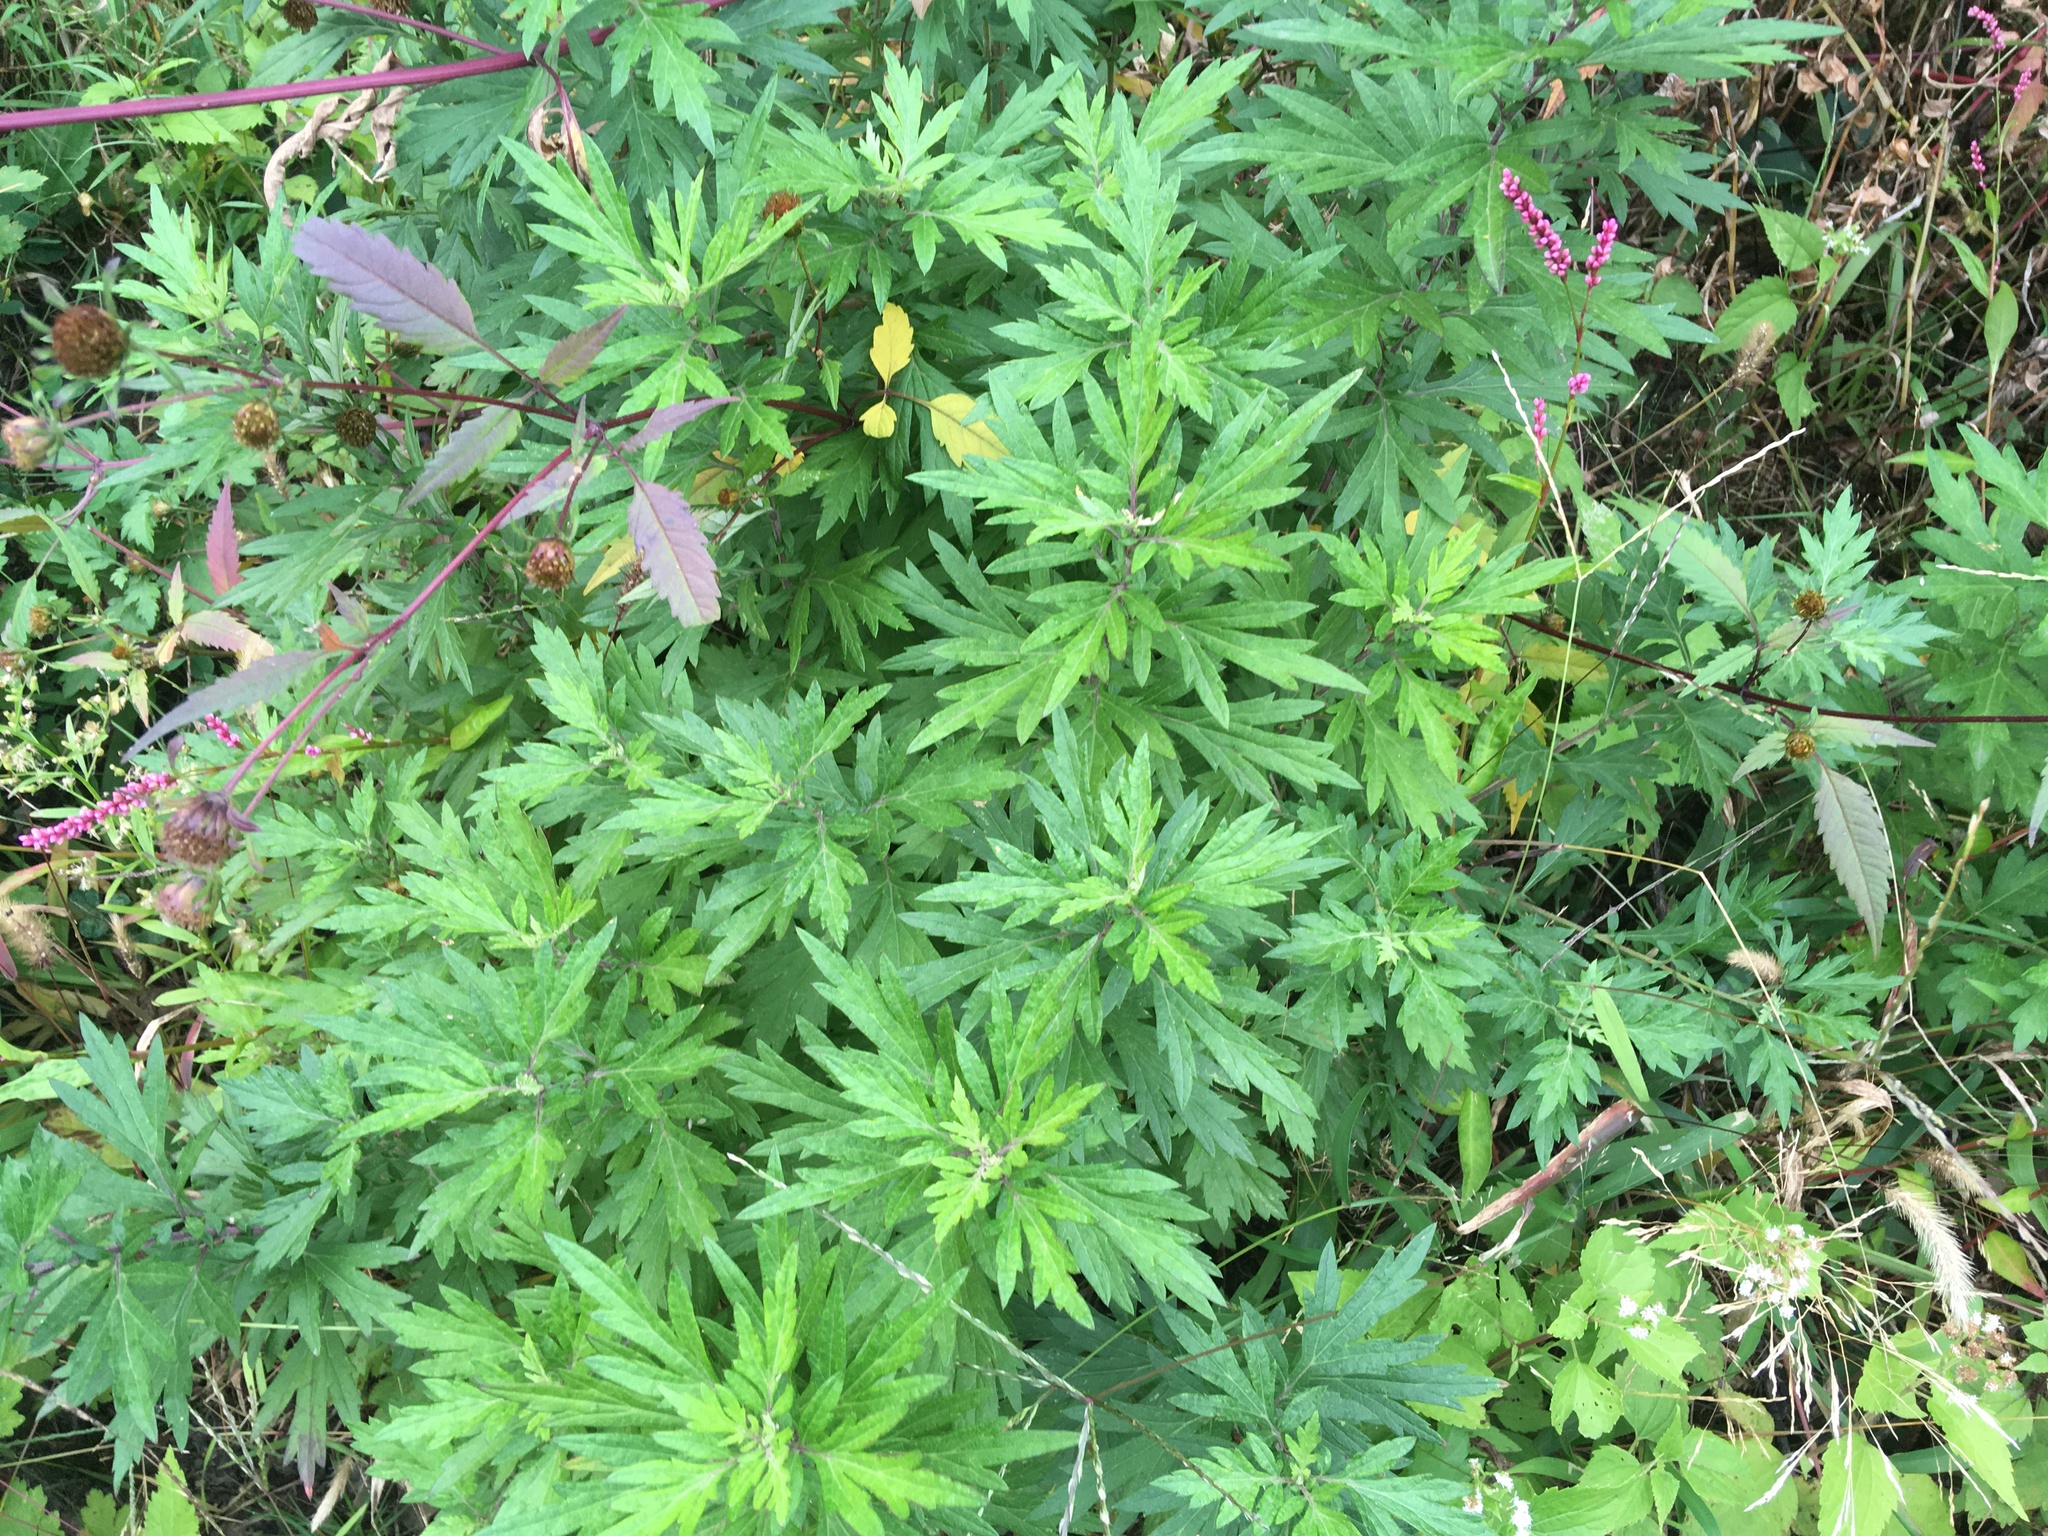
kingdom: Plantae
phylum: Tracheophyta
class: Magnoliopsida
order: Asterales
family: Asteraceae
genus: Artemisia
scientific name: Artemisia vulgaris
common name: Mugwort
